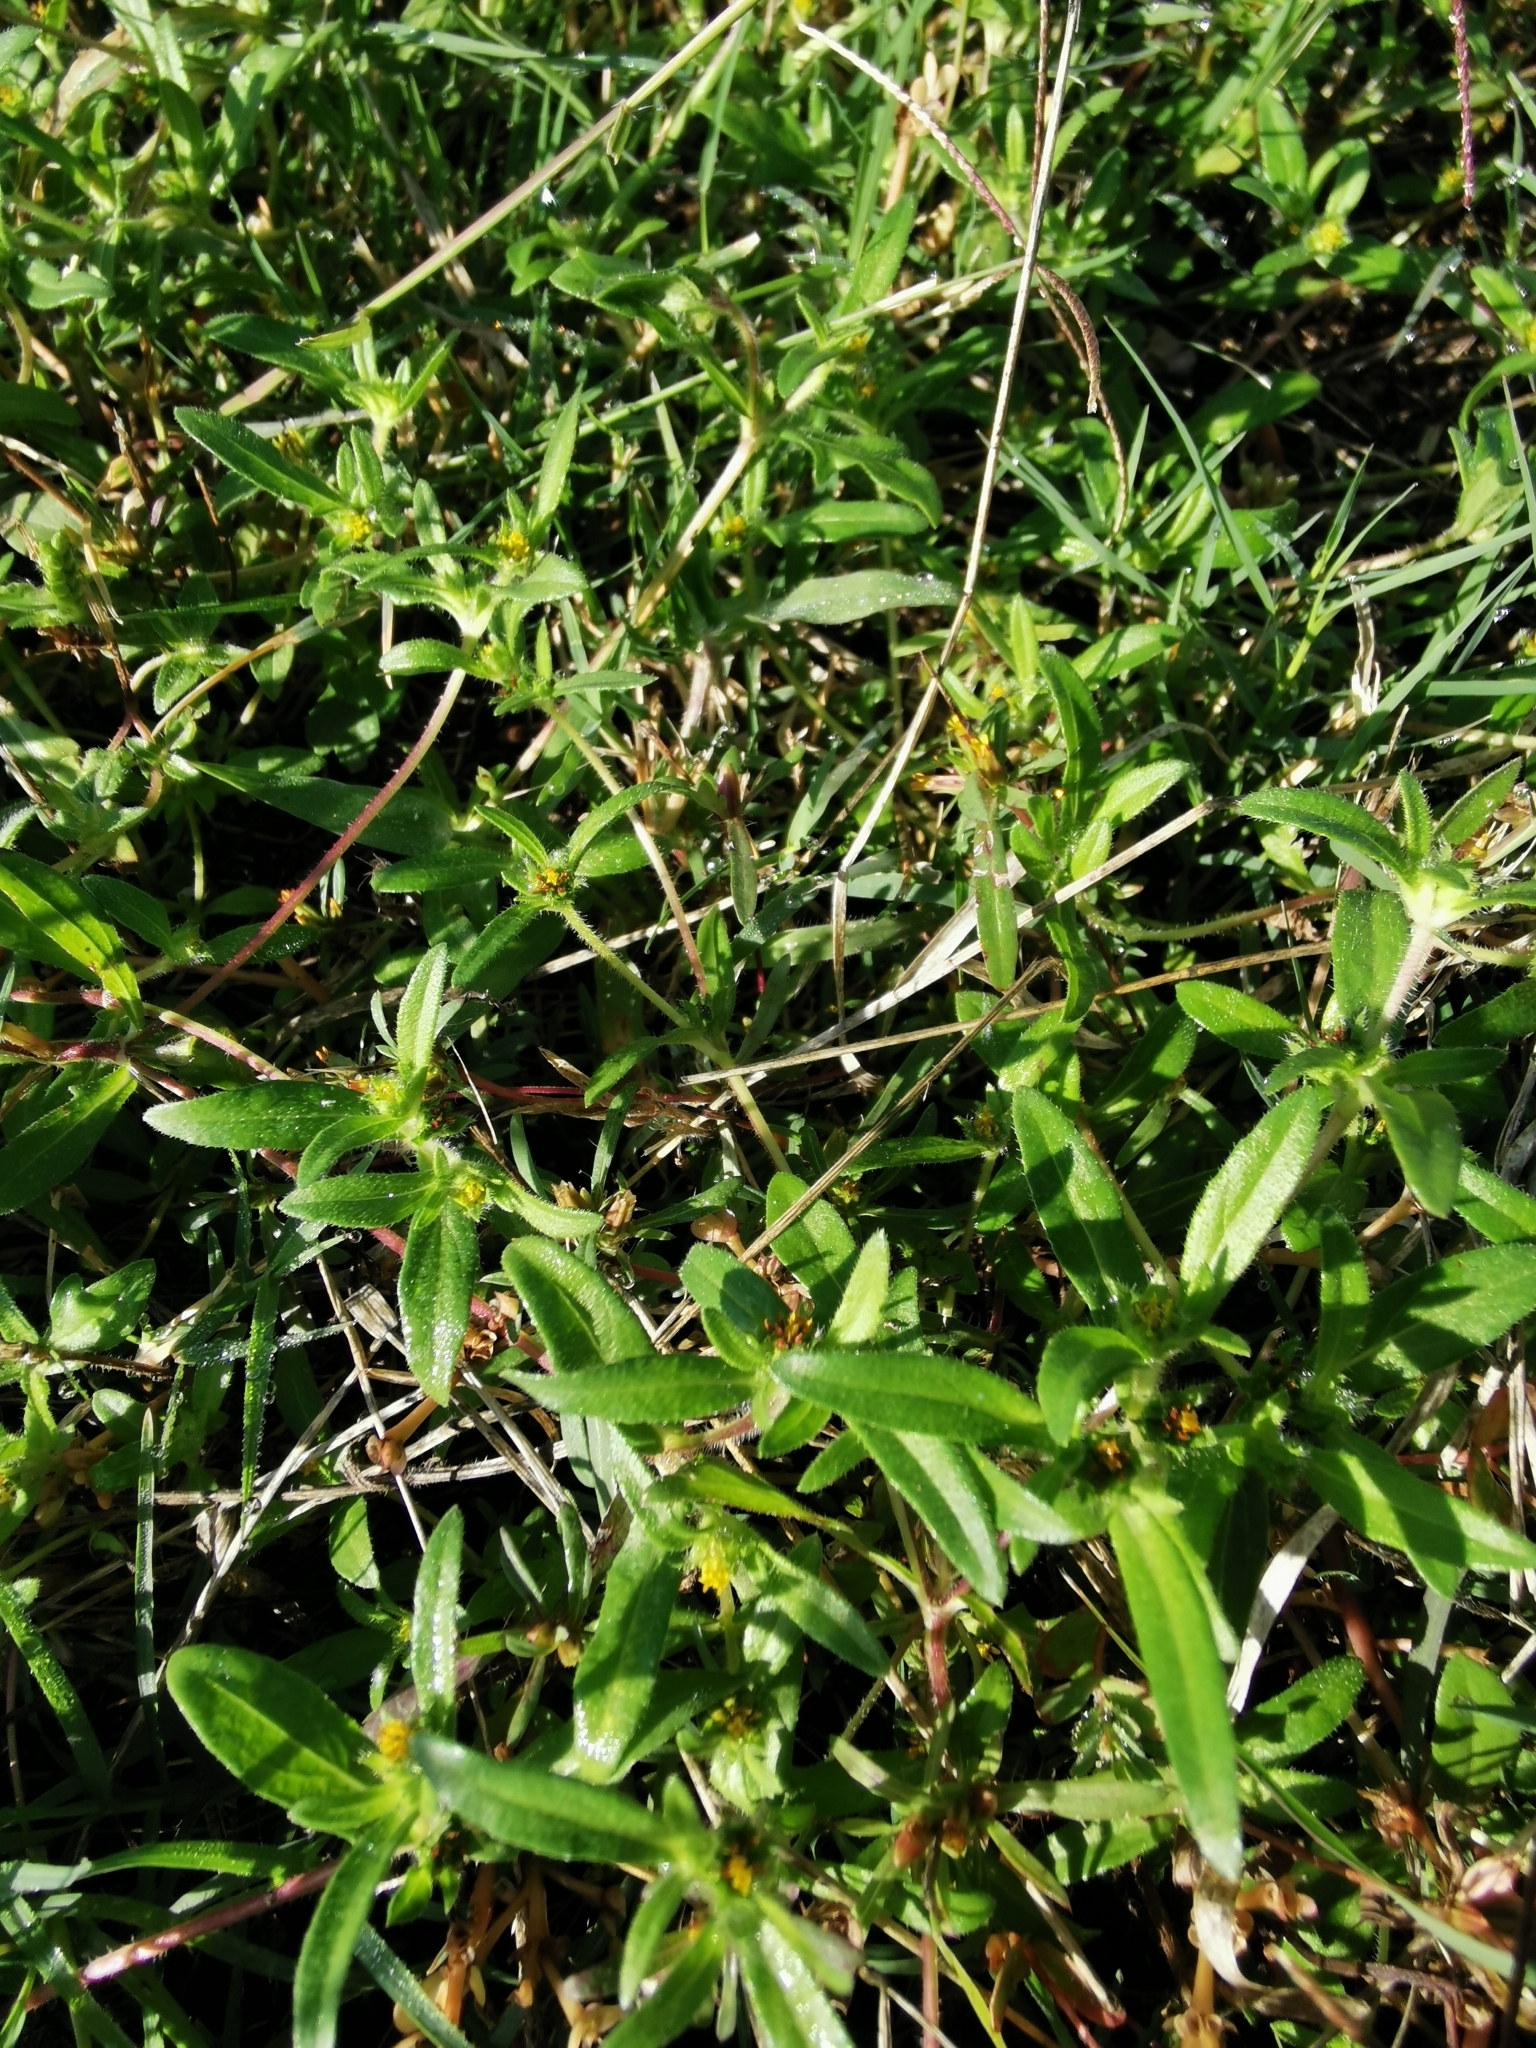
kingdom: Plantae
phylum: Tracheophyta
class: Magnoliopsida
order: Asterales
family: Asteraceae
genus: Pectis
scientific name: Pectis prostrata
